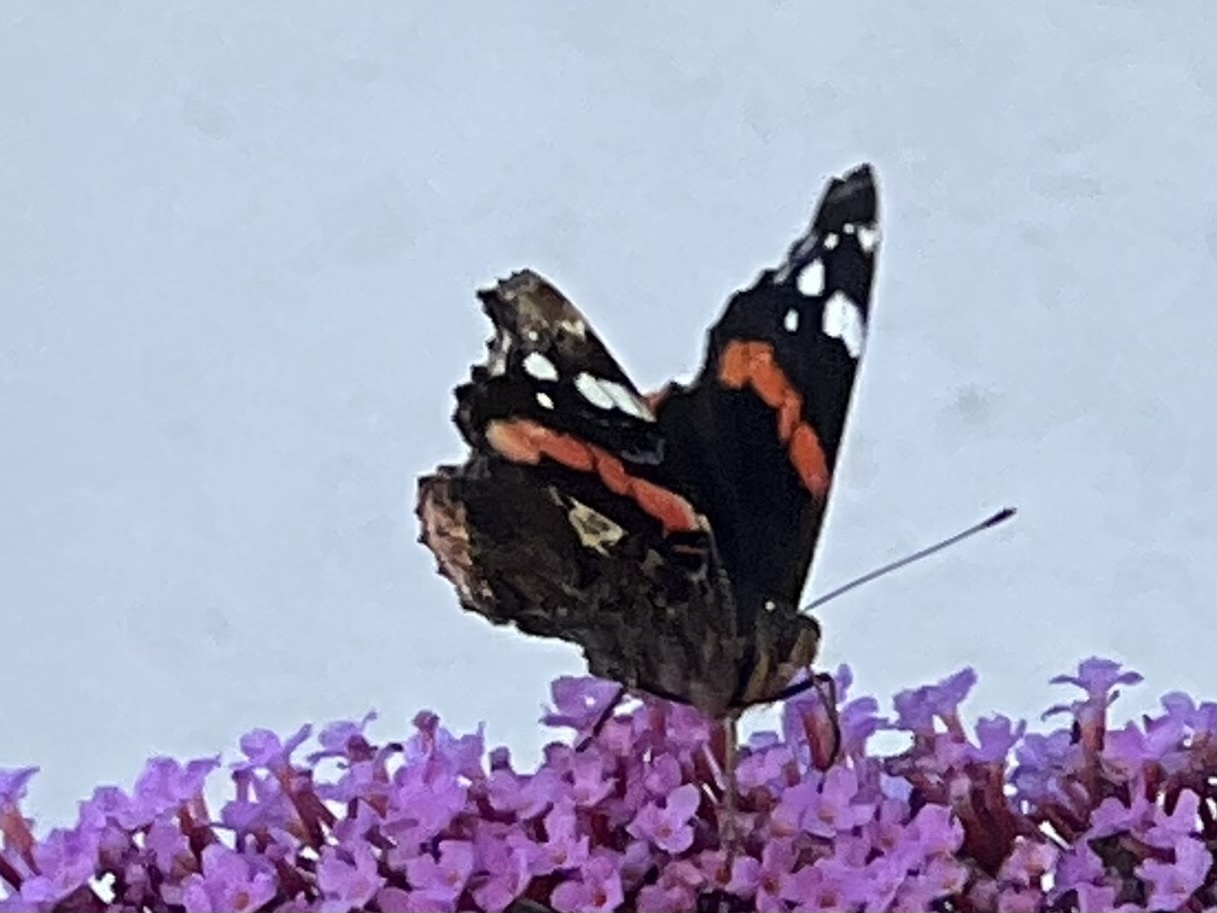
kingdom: Animalia
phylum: Arthropoda
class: Insecta
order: Lepidoptera
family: Nymphalidae
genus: Vanessa
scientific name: Vanessa atalanta
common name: Red admiral
